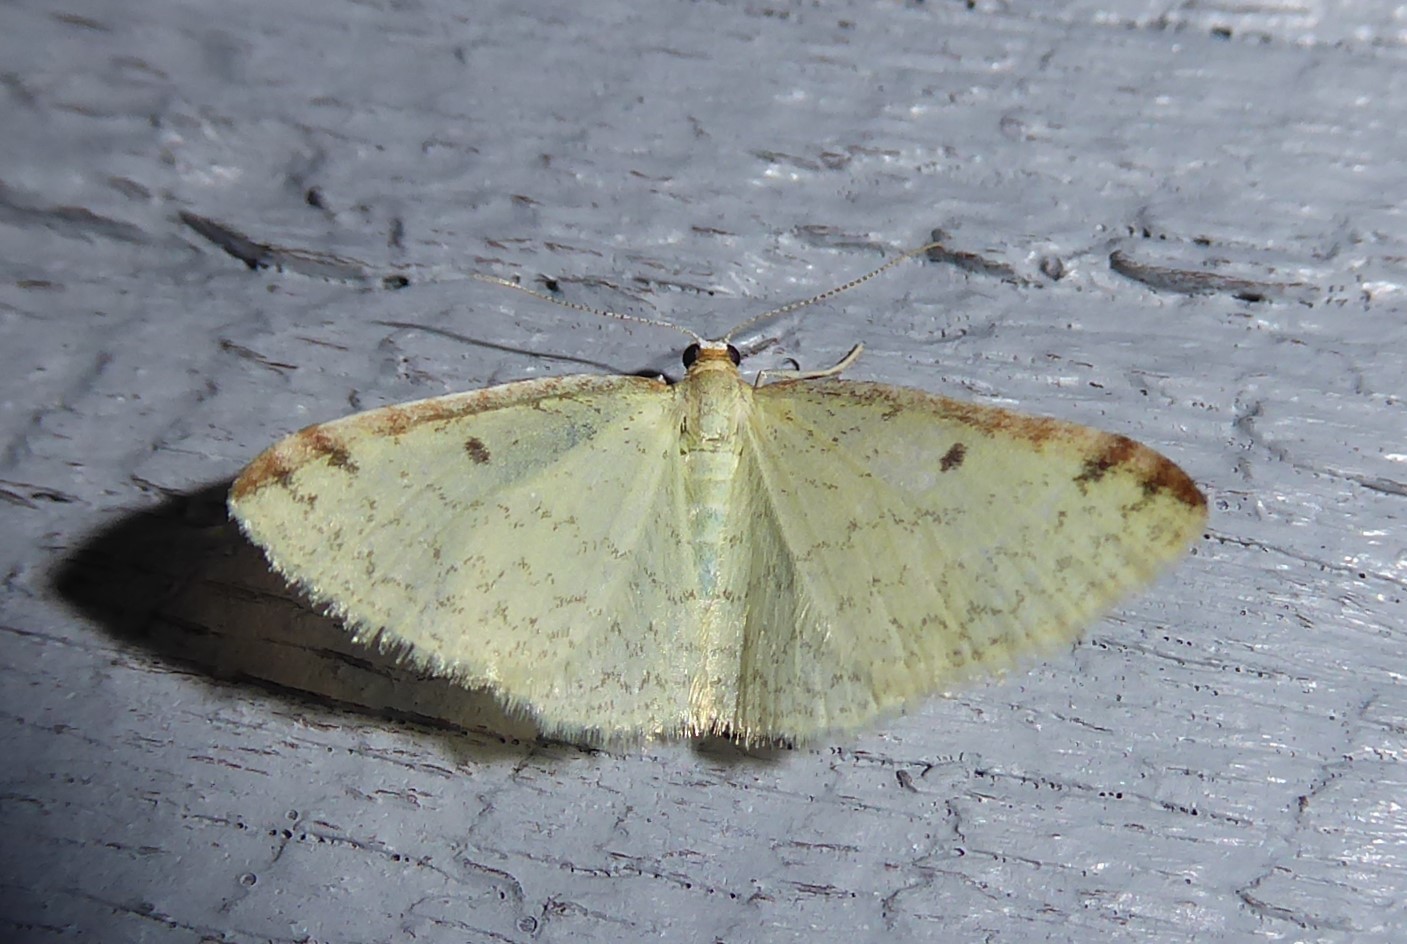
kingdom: Animalia
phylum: Arthropoda
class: Insecta
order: Lepidoptera
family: Geometridae
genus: Epiphryne
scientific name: Epiphryne undosata
